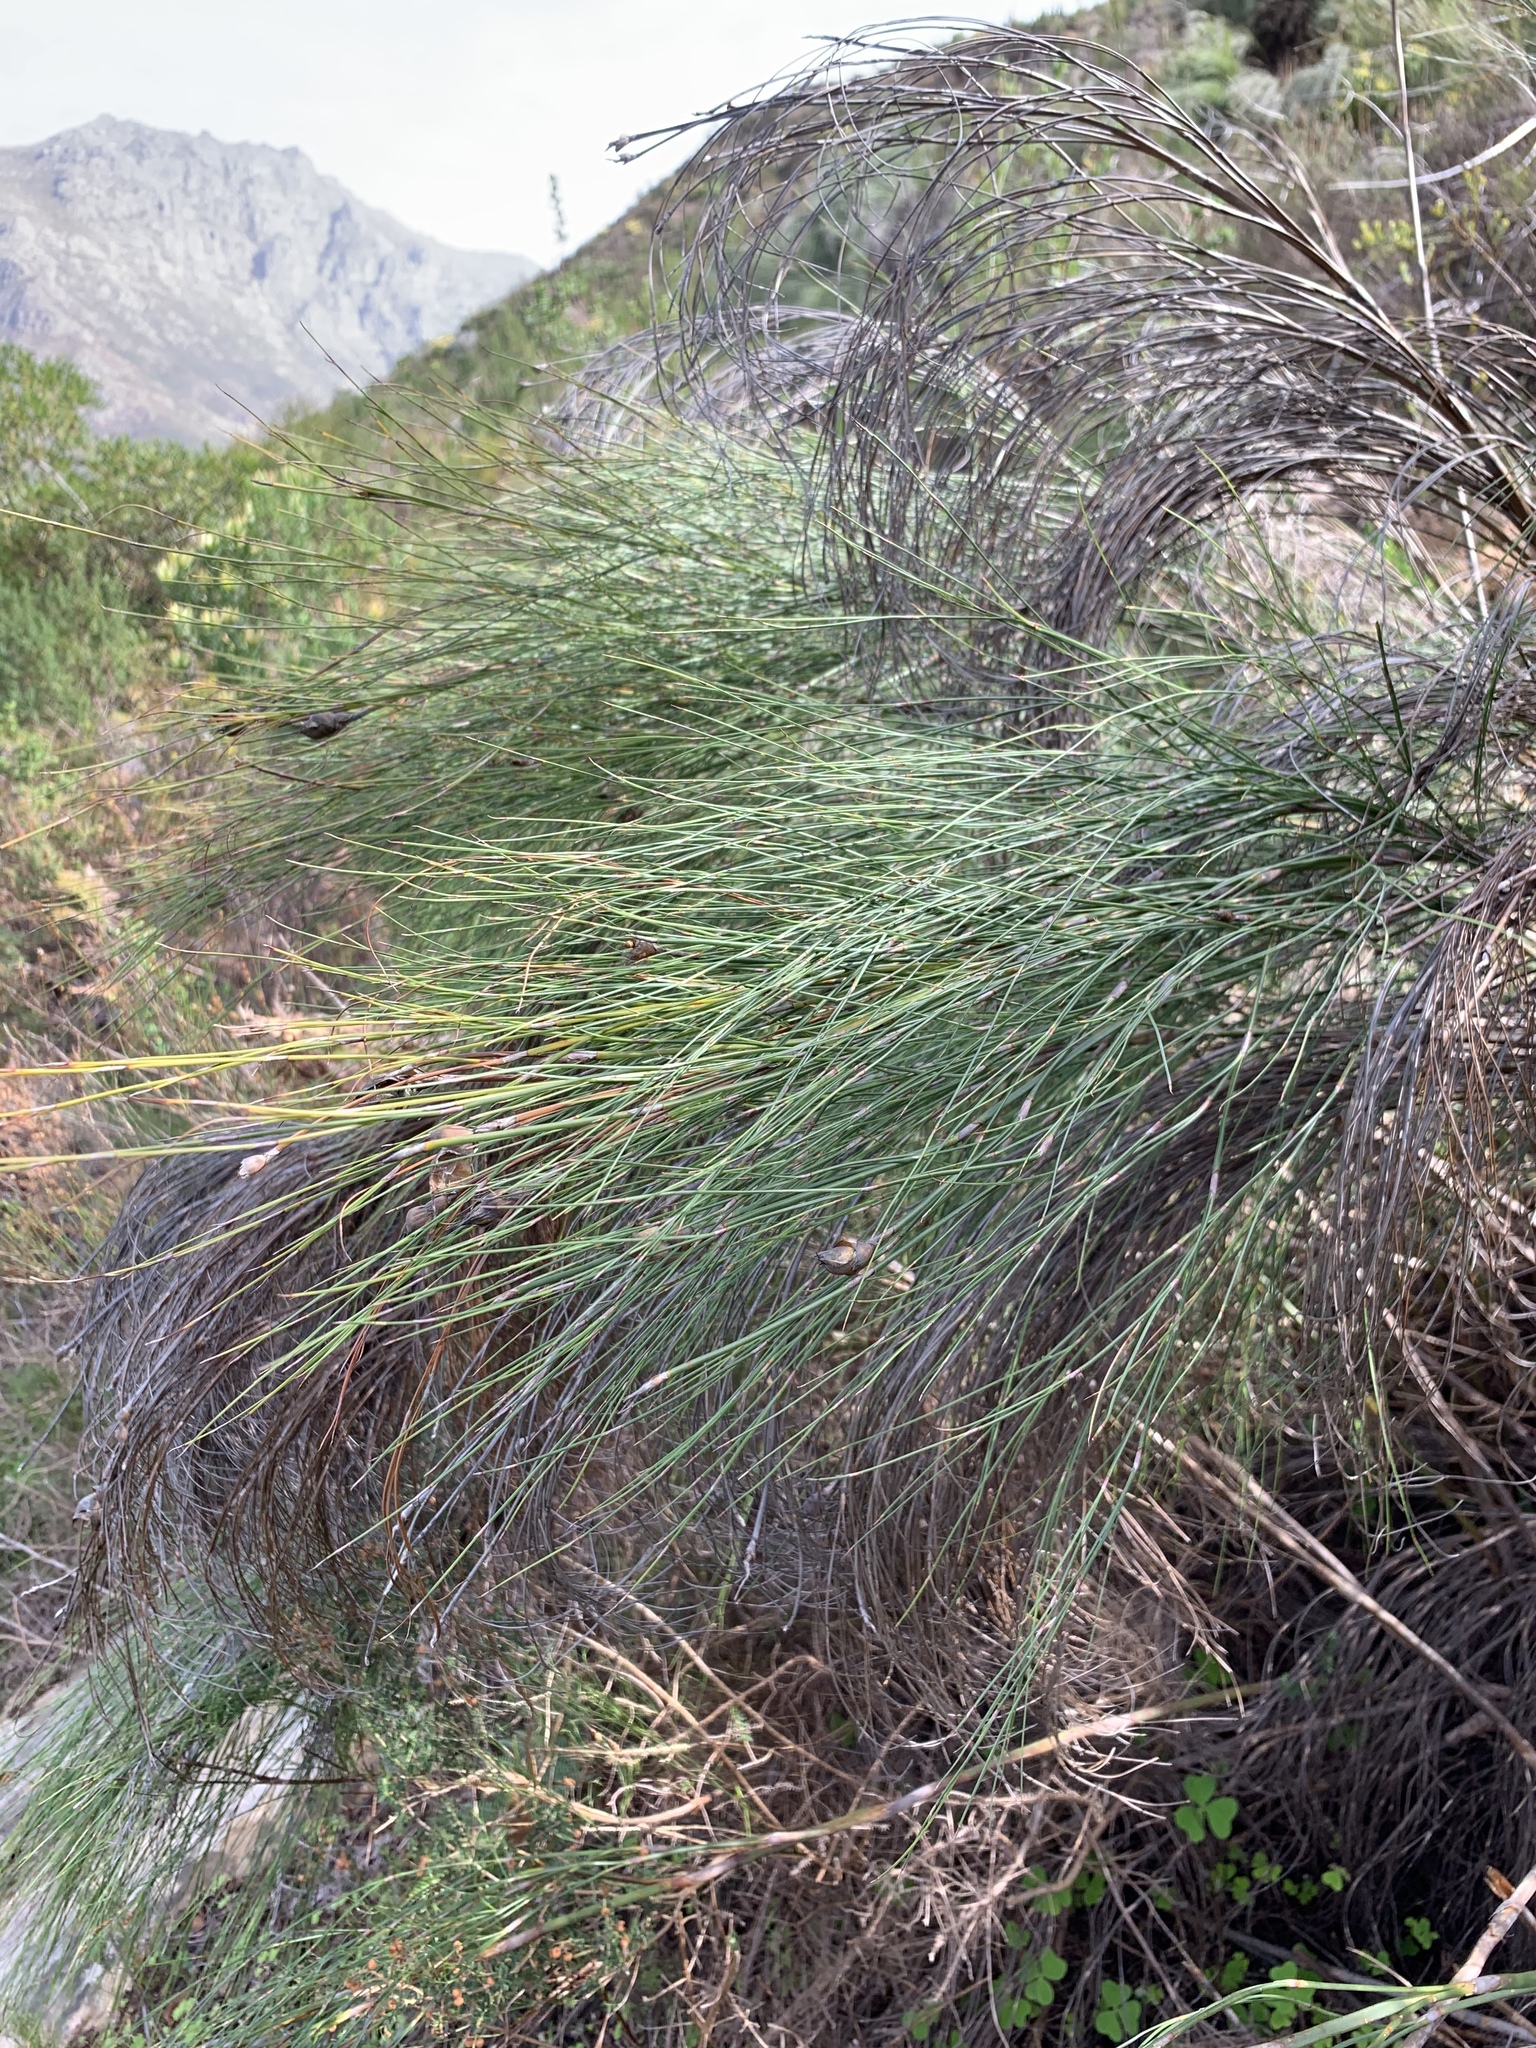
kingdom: Plantae
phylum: Tracheophyta
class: Liliopsida
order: Poales
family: Restionaceae
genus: Cannomois
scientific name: Cannomois virgata
